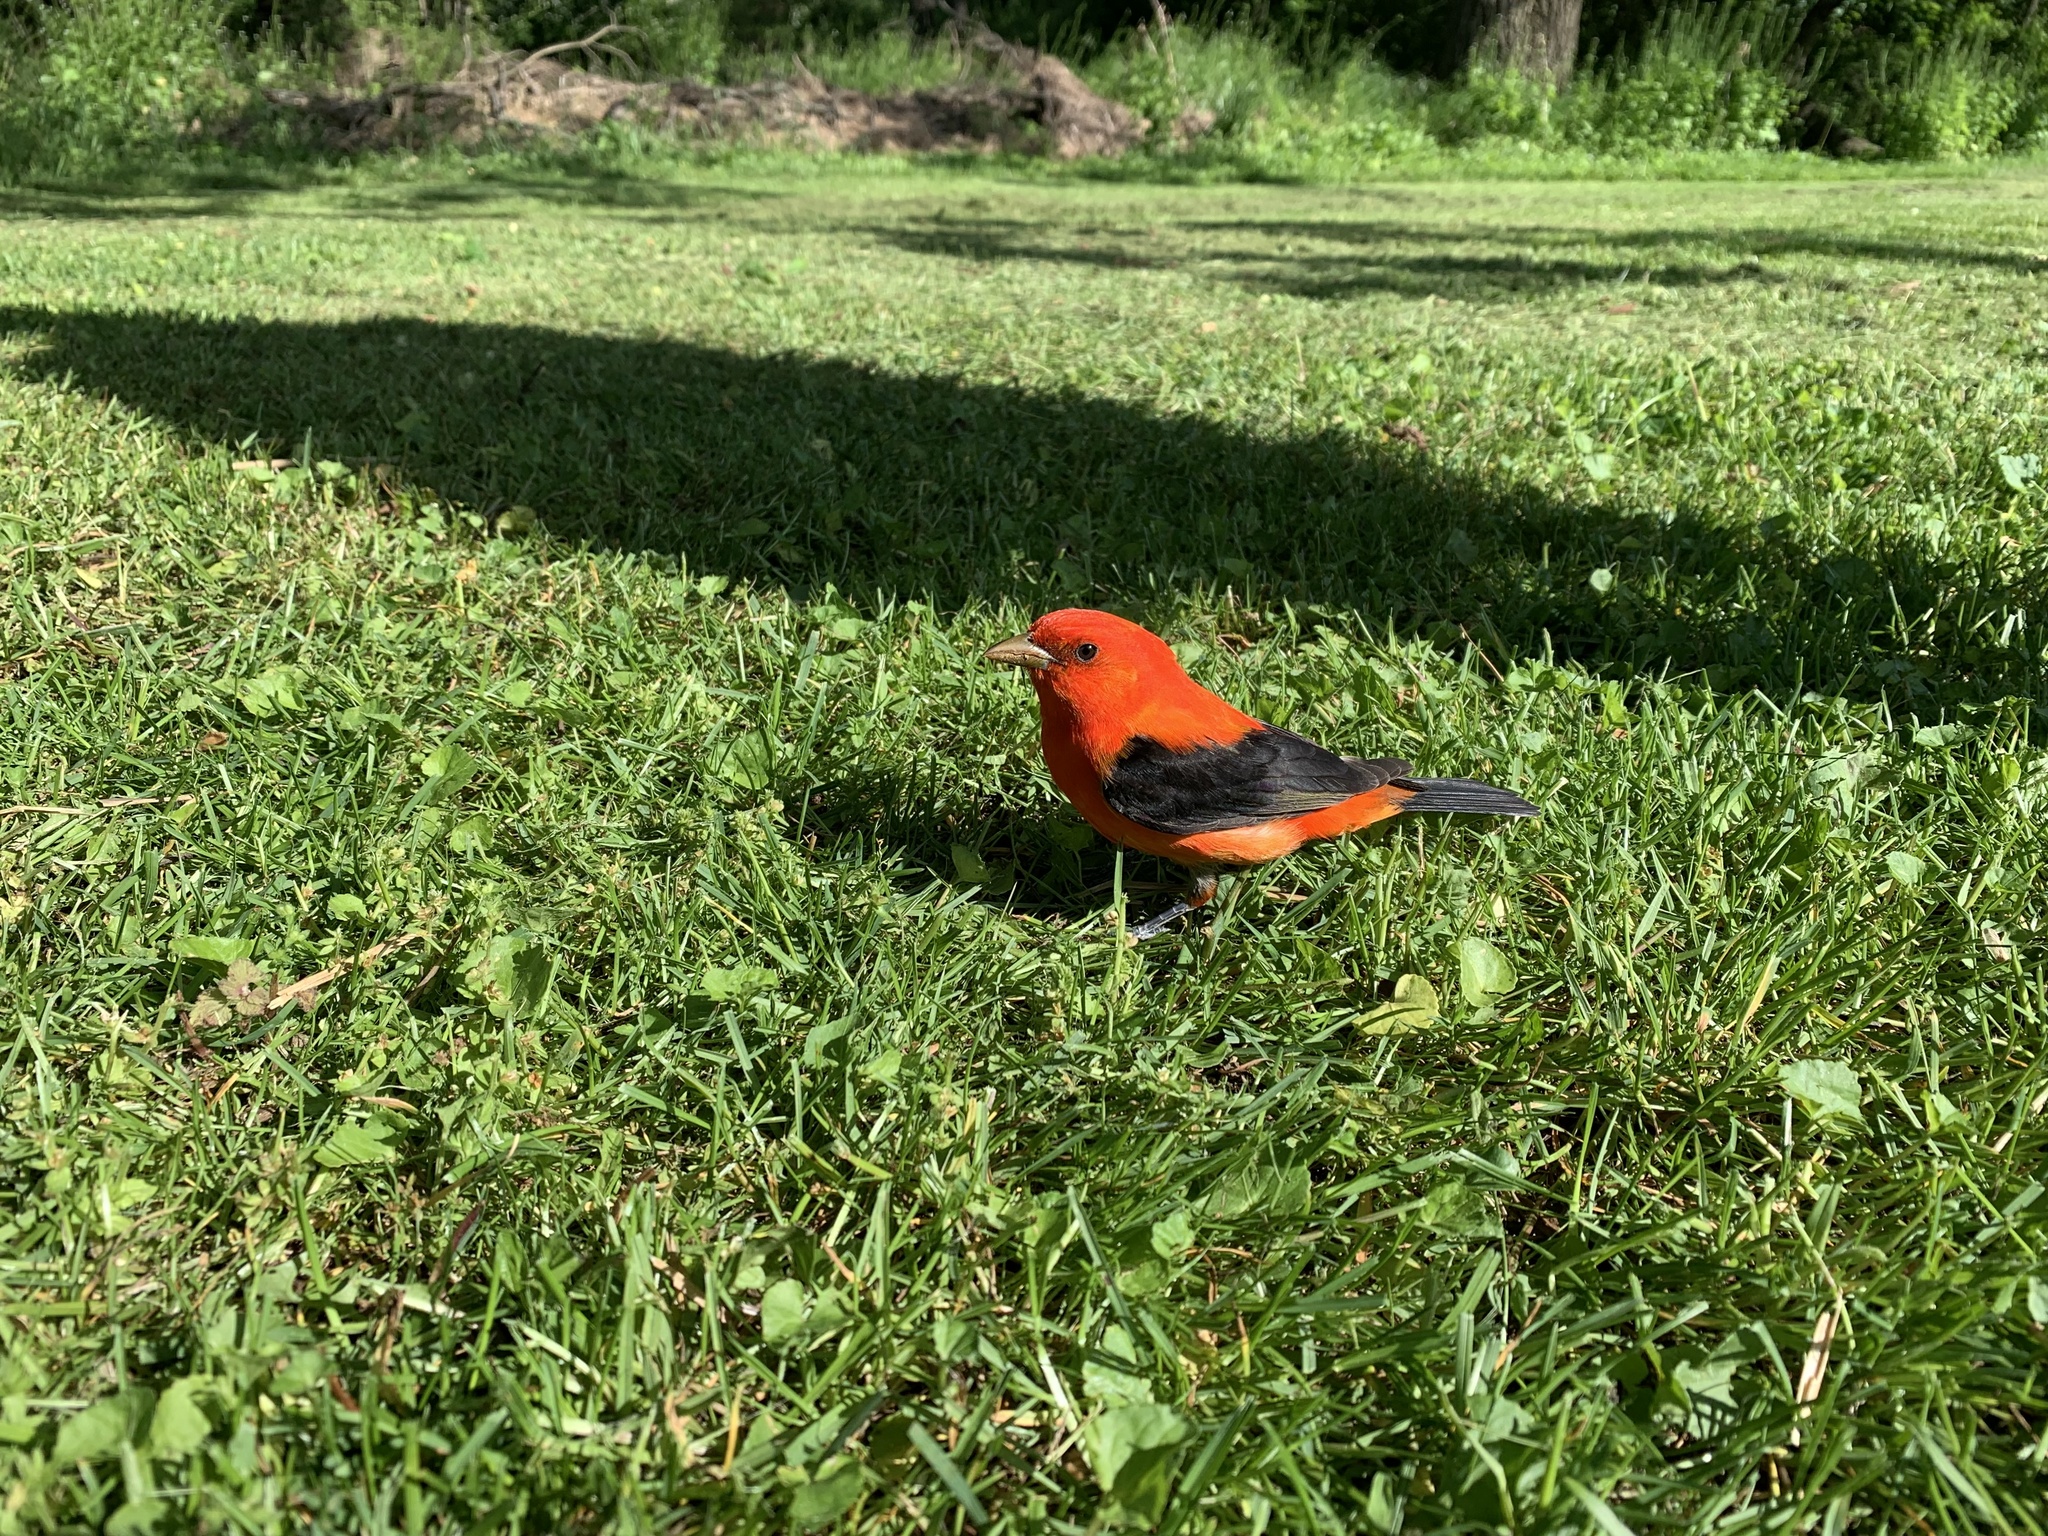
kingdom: Animalia
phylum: Chordata
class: Aves
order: Passeriformes
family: Cardinalidae
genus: Piranga
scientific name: Piranga olivacea
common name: Scarlet tanager
